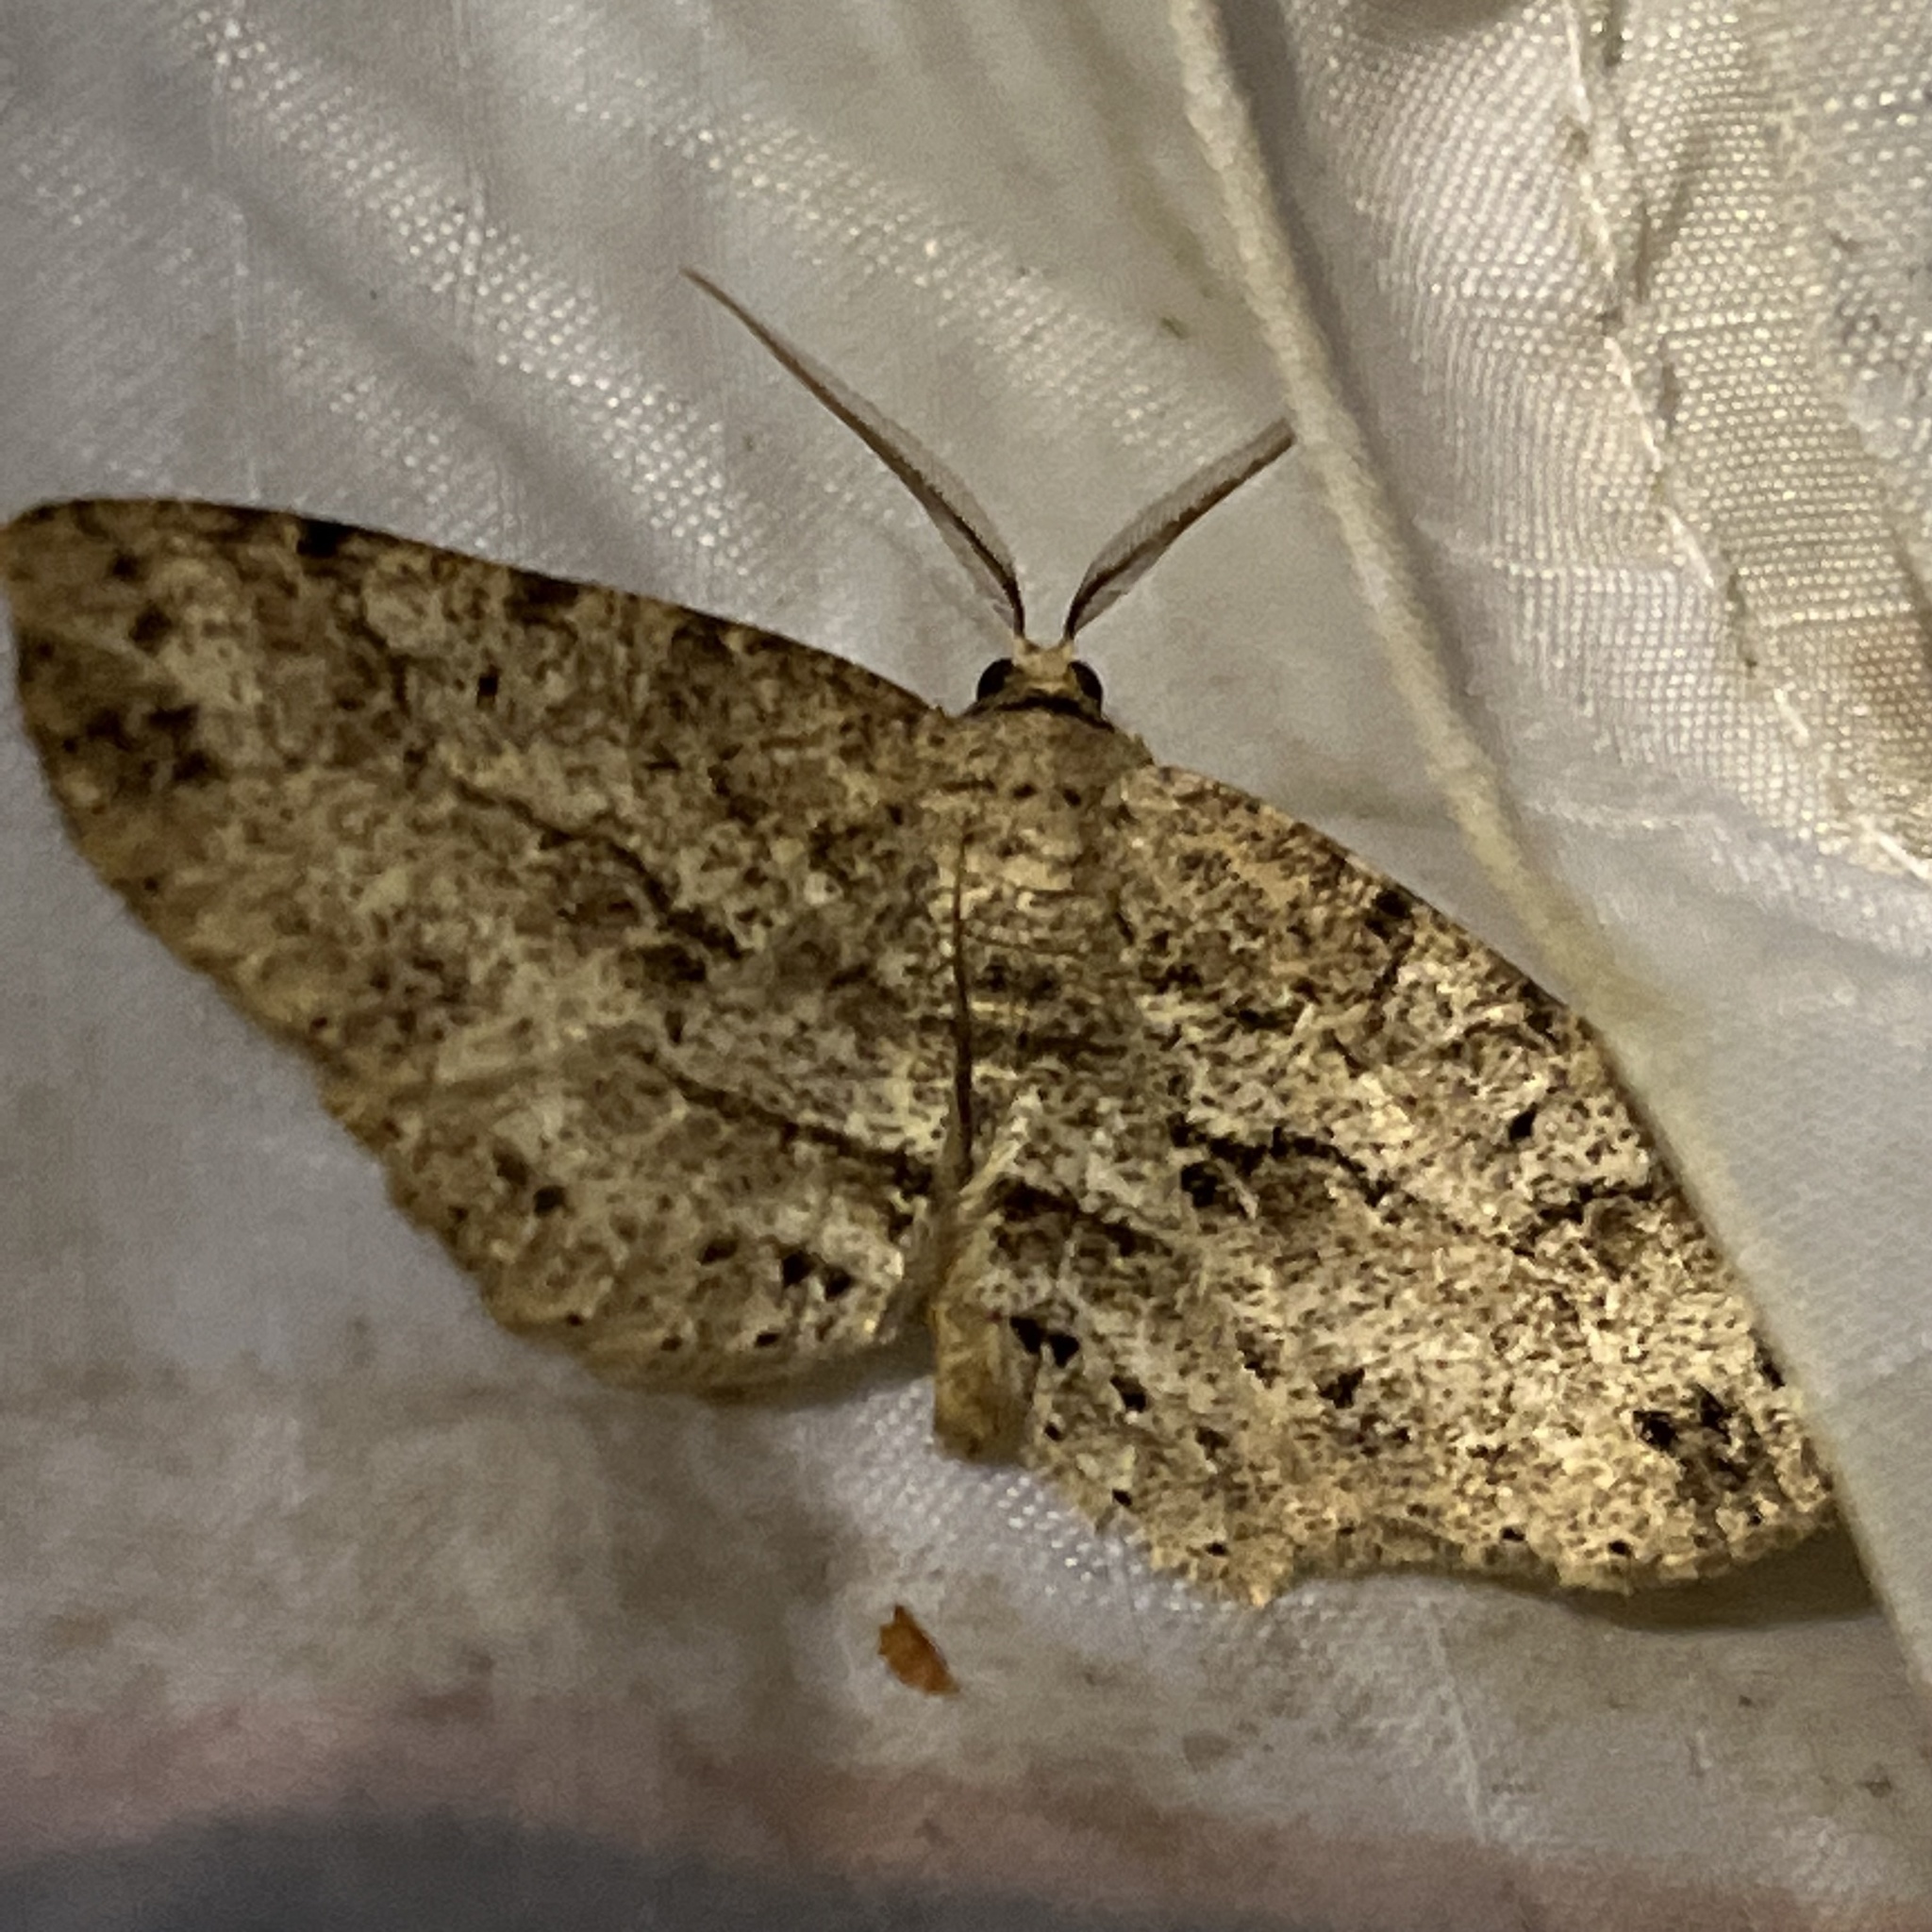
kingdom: Animalia
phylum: Arthropoda
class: Insecta
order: Lepidoptera
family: Geometridae
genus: Melanolophia
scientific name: Melanolophia canadaria
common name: Canadian melanolophia
